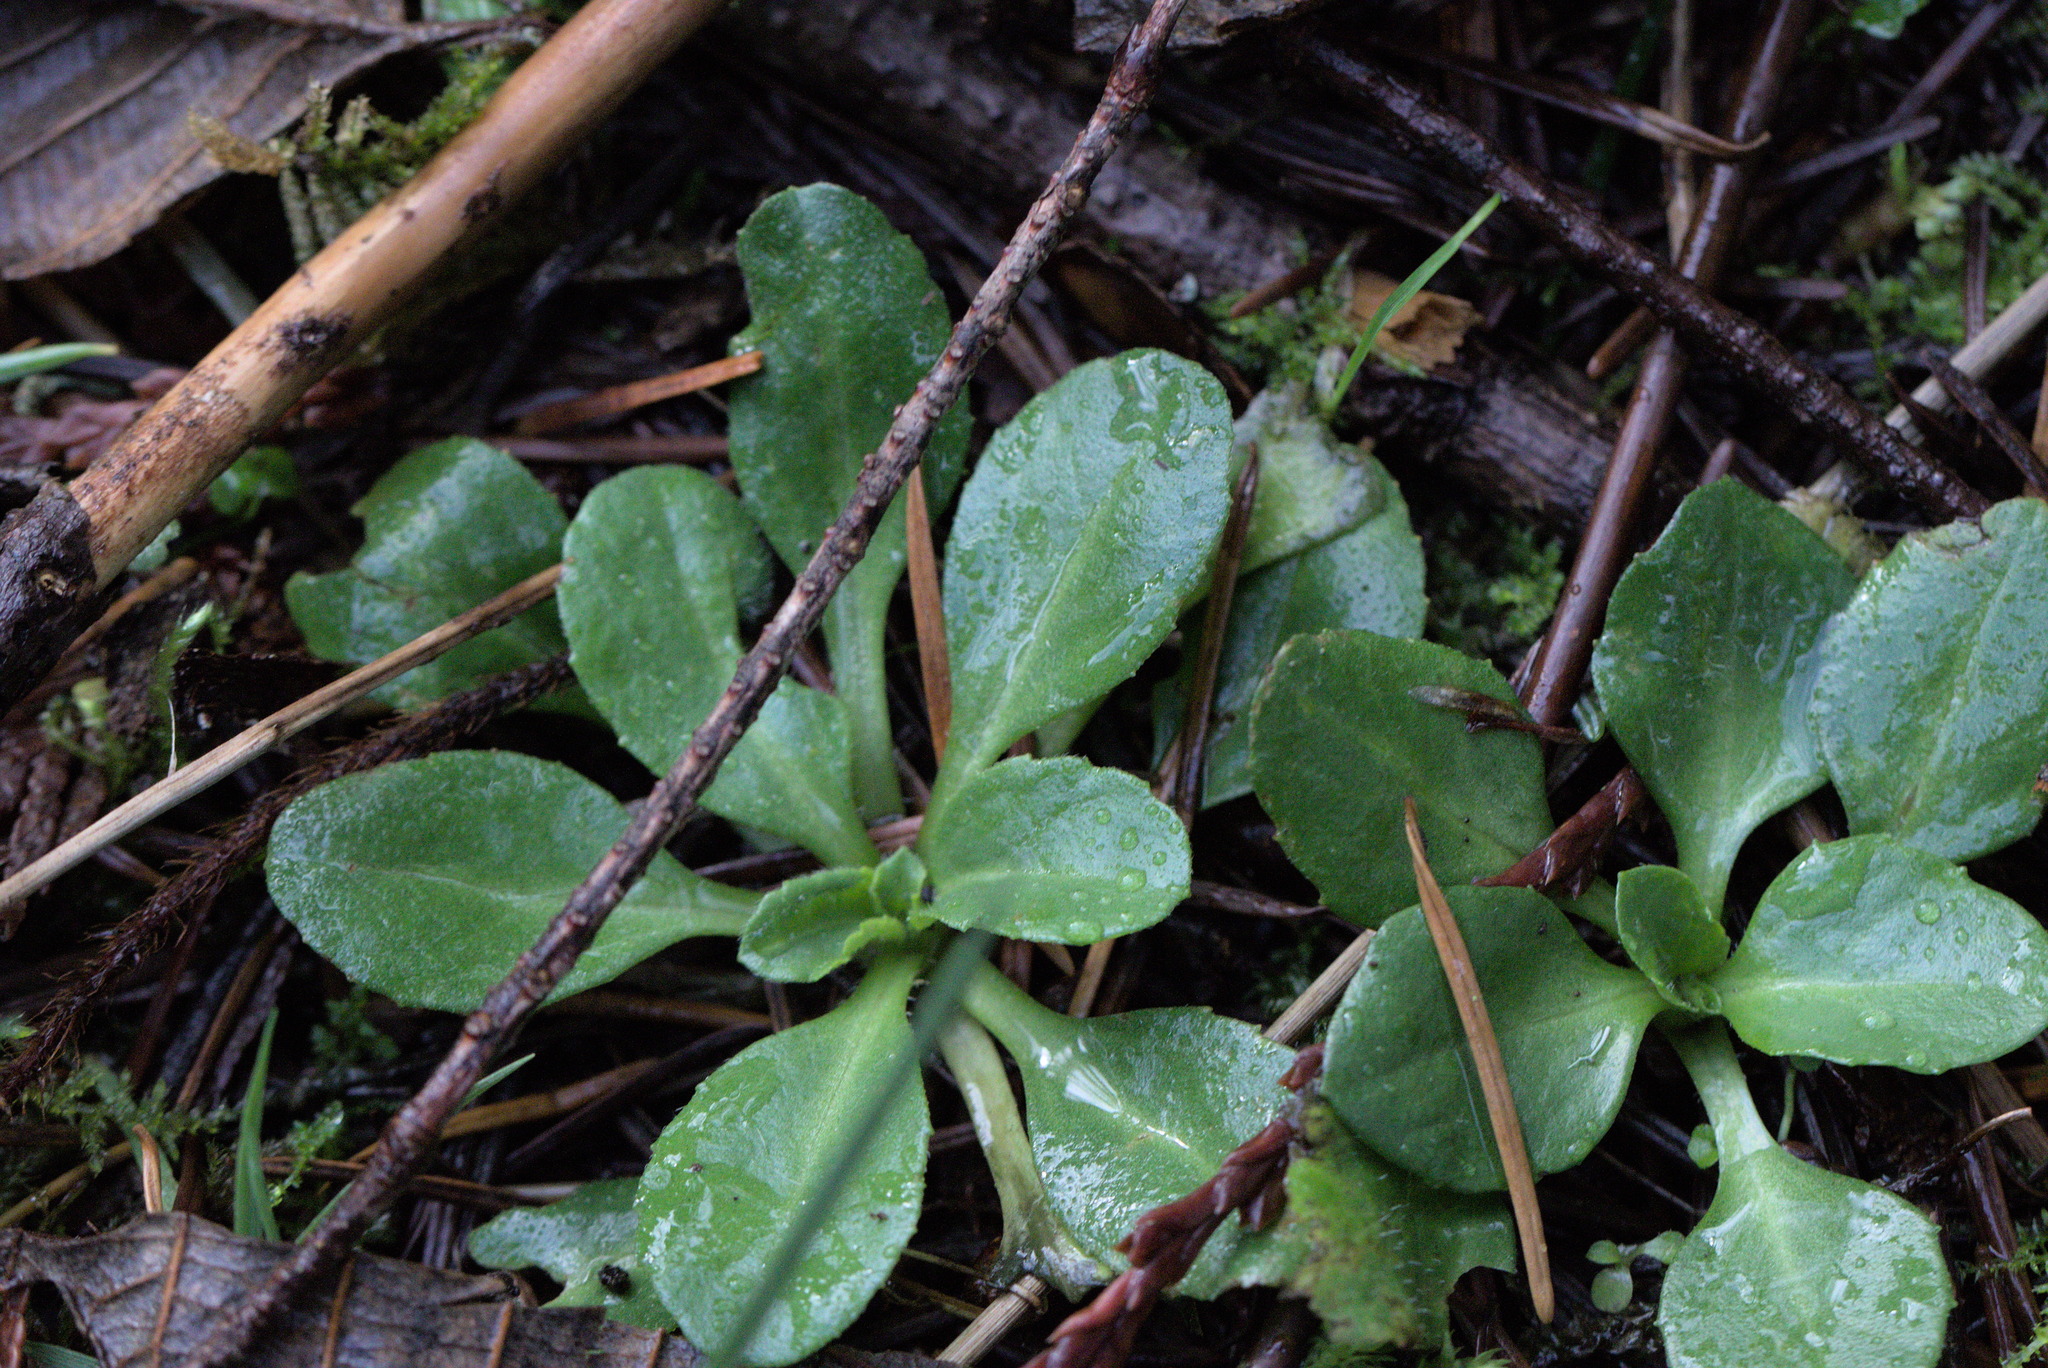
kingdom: Plantae
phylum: Tracheophyta
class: Magnoliopsida
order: Asterales
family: Asteraceae
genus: Bellis
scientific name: Bellis perennis
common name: Lawndaisy
